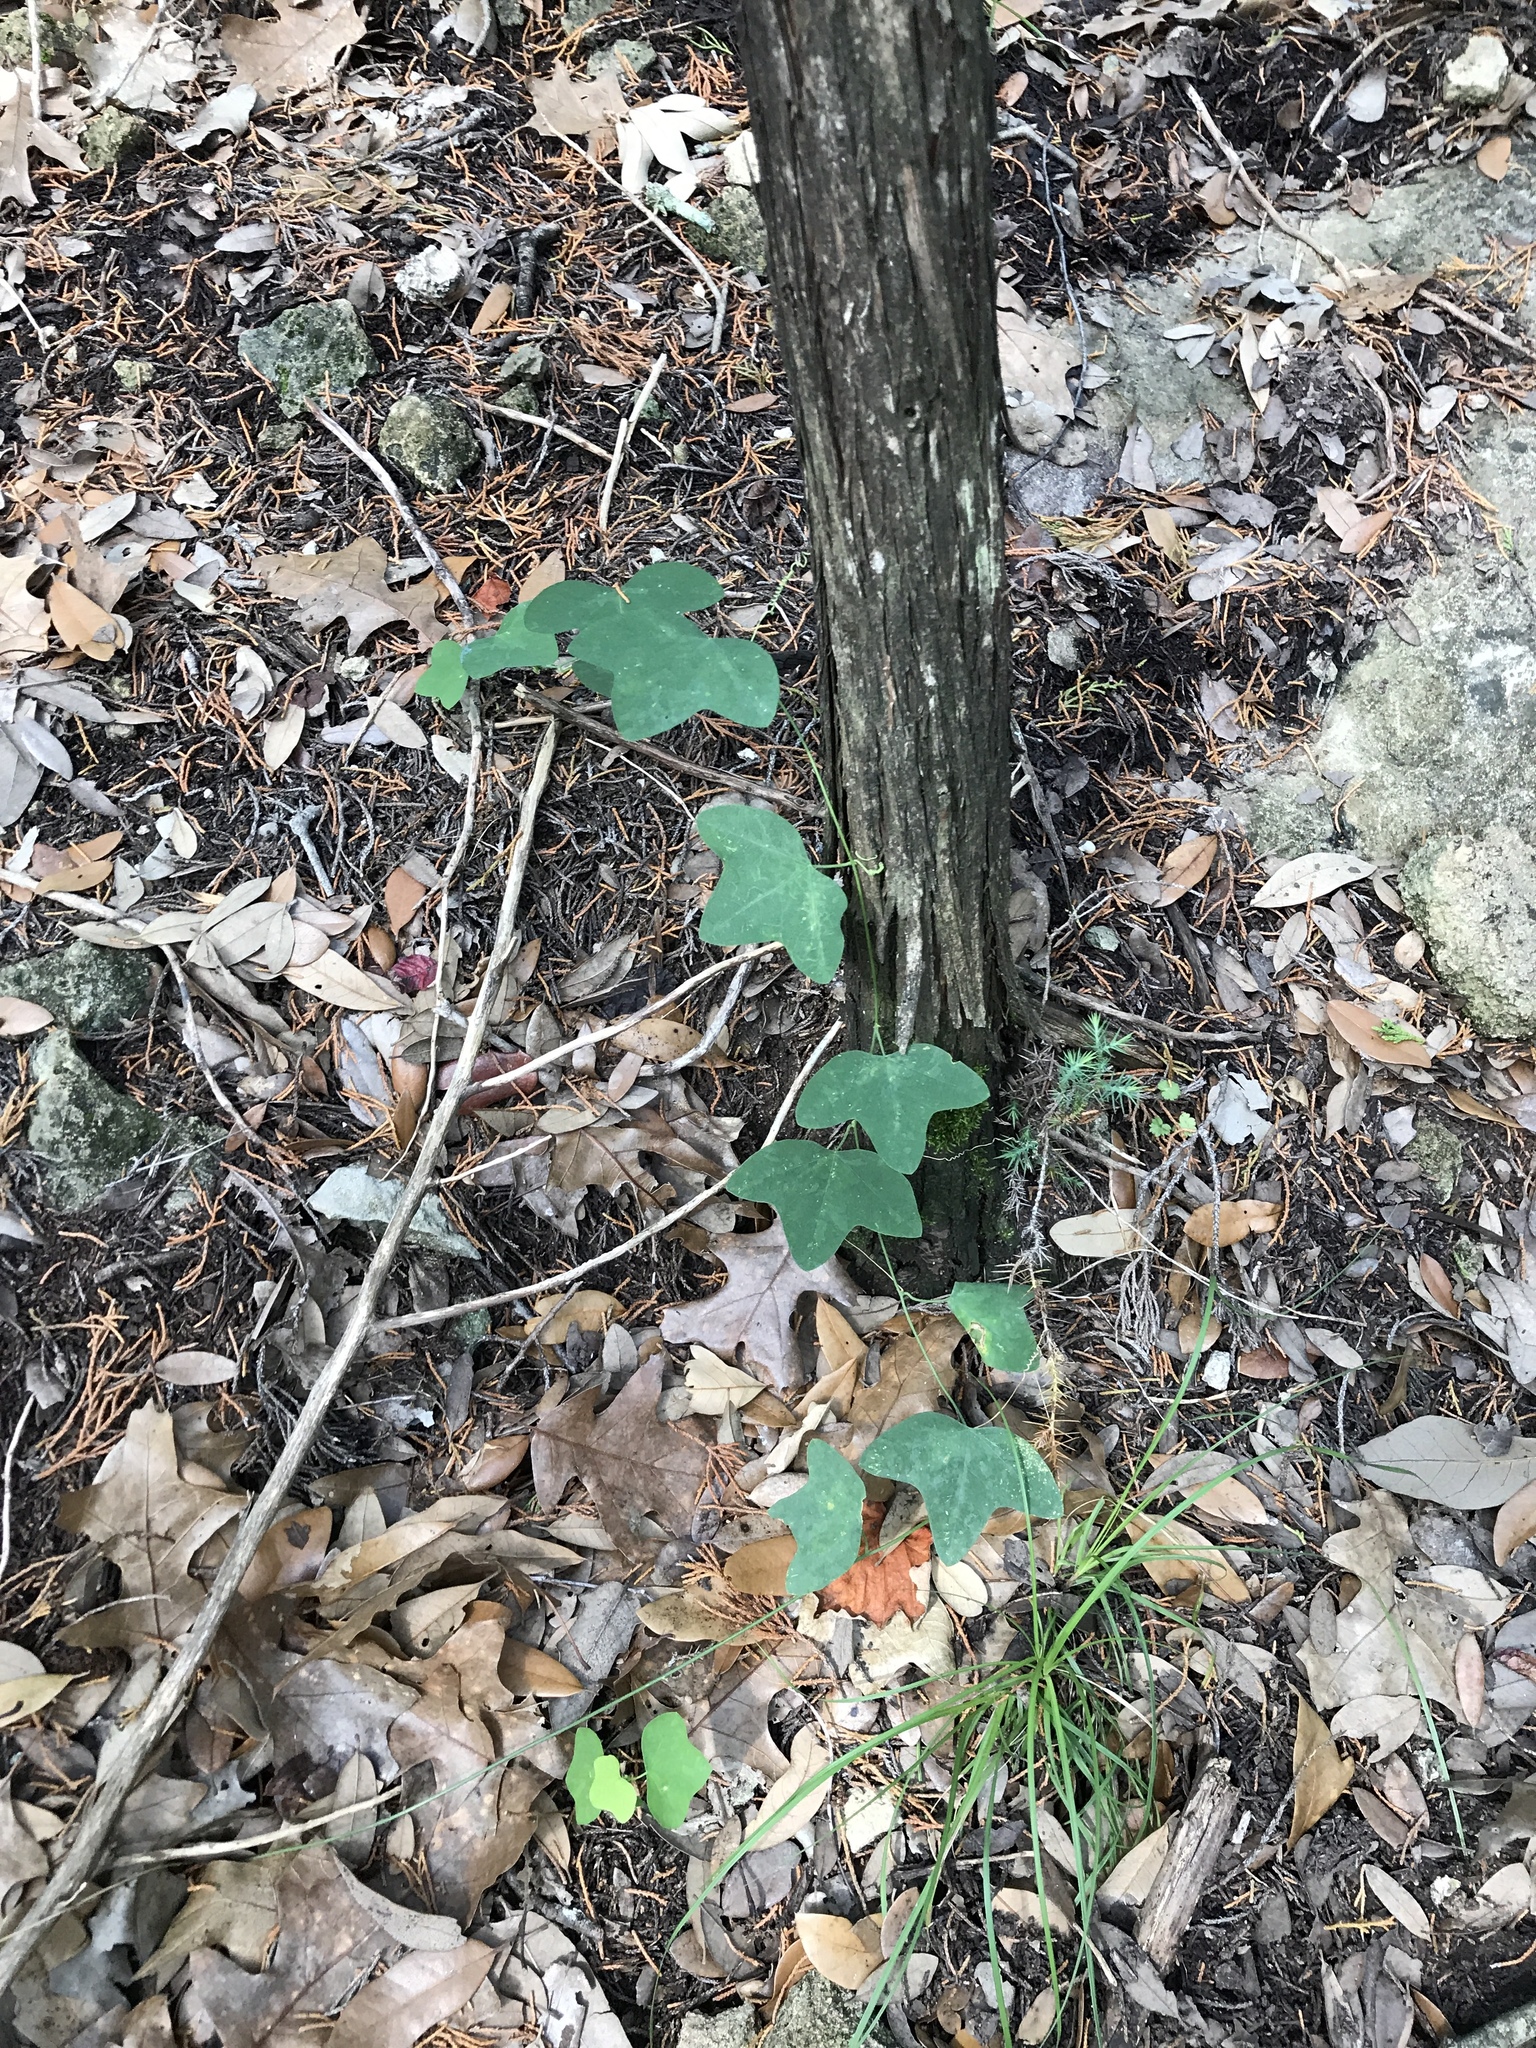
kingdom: Plantae
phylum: Tracheophyta
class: Magnoliopsida
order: Malpighiales
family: Passifloraceae
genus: Passiflora
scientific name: Passiflora lutea
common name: Yellow passionflower
